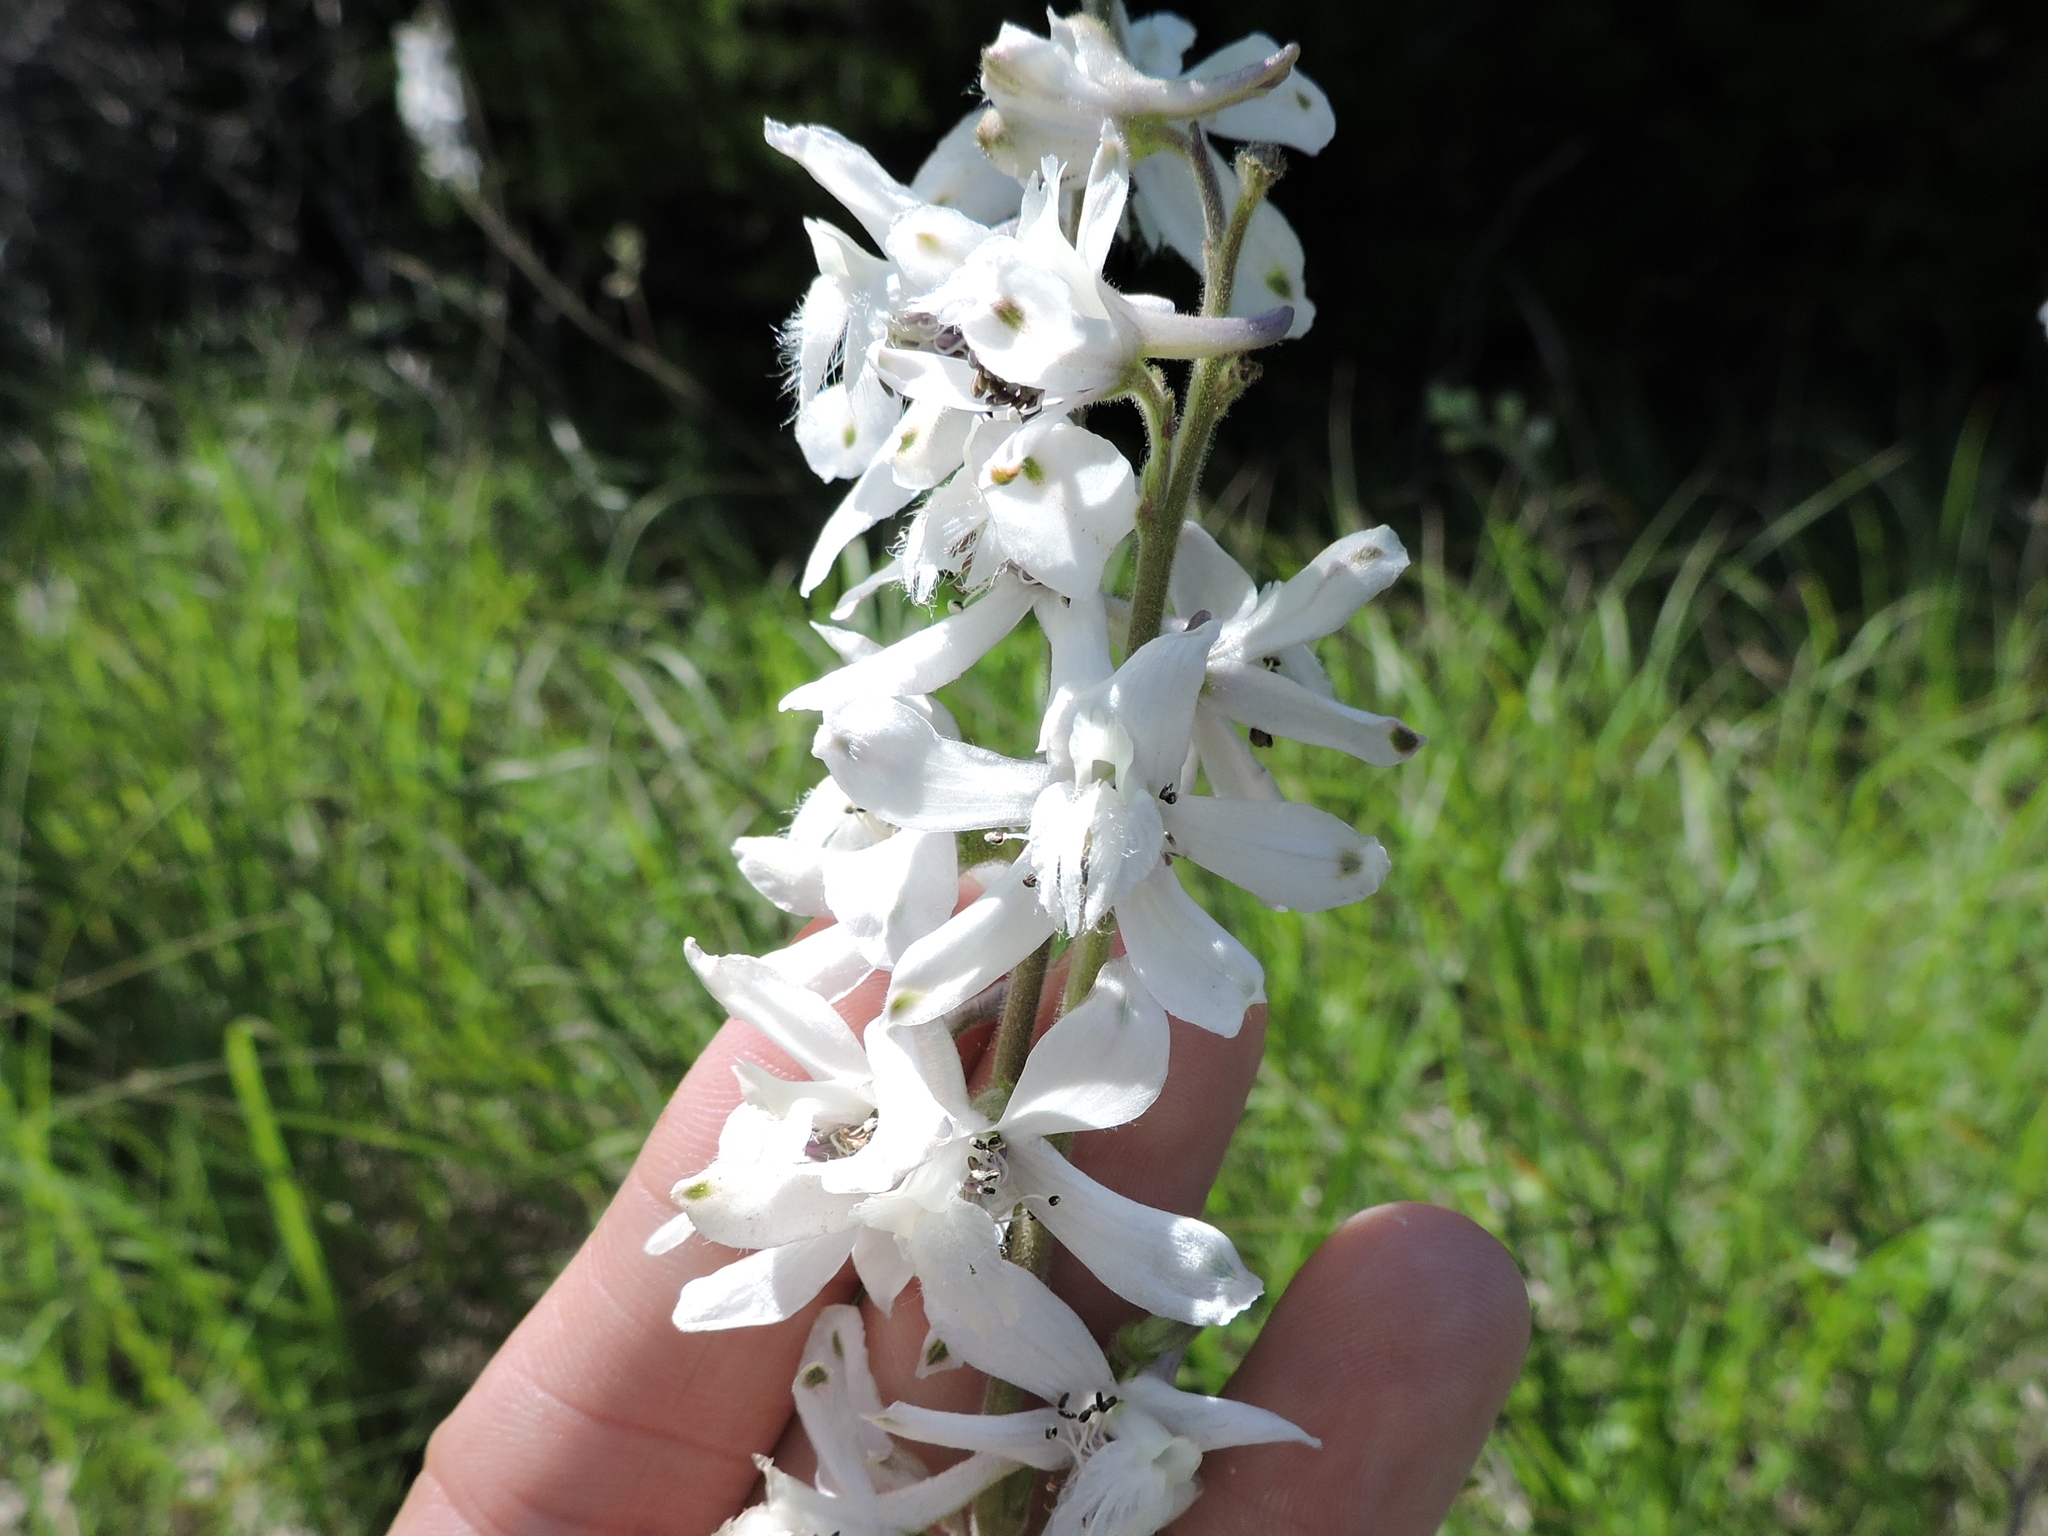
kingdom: Plantae
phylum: Tracheophyta
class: Magnoliopsida
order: Ranunculales
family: Ranunculaceae
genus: Delphinium
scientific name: Delphinium carolinianum
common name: Carolina larkspur
